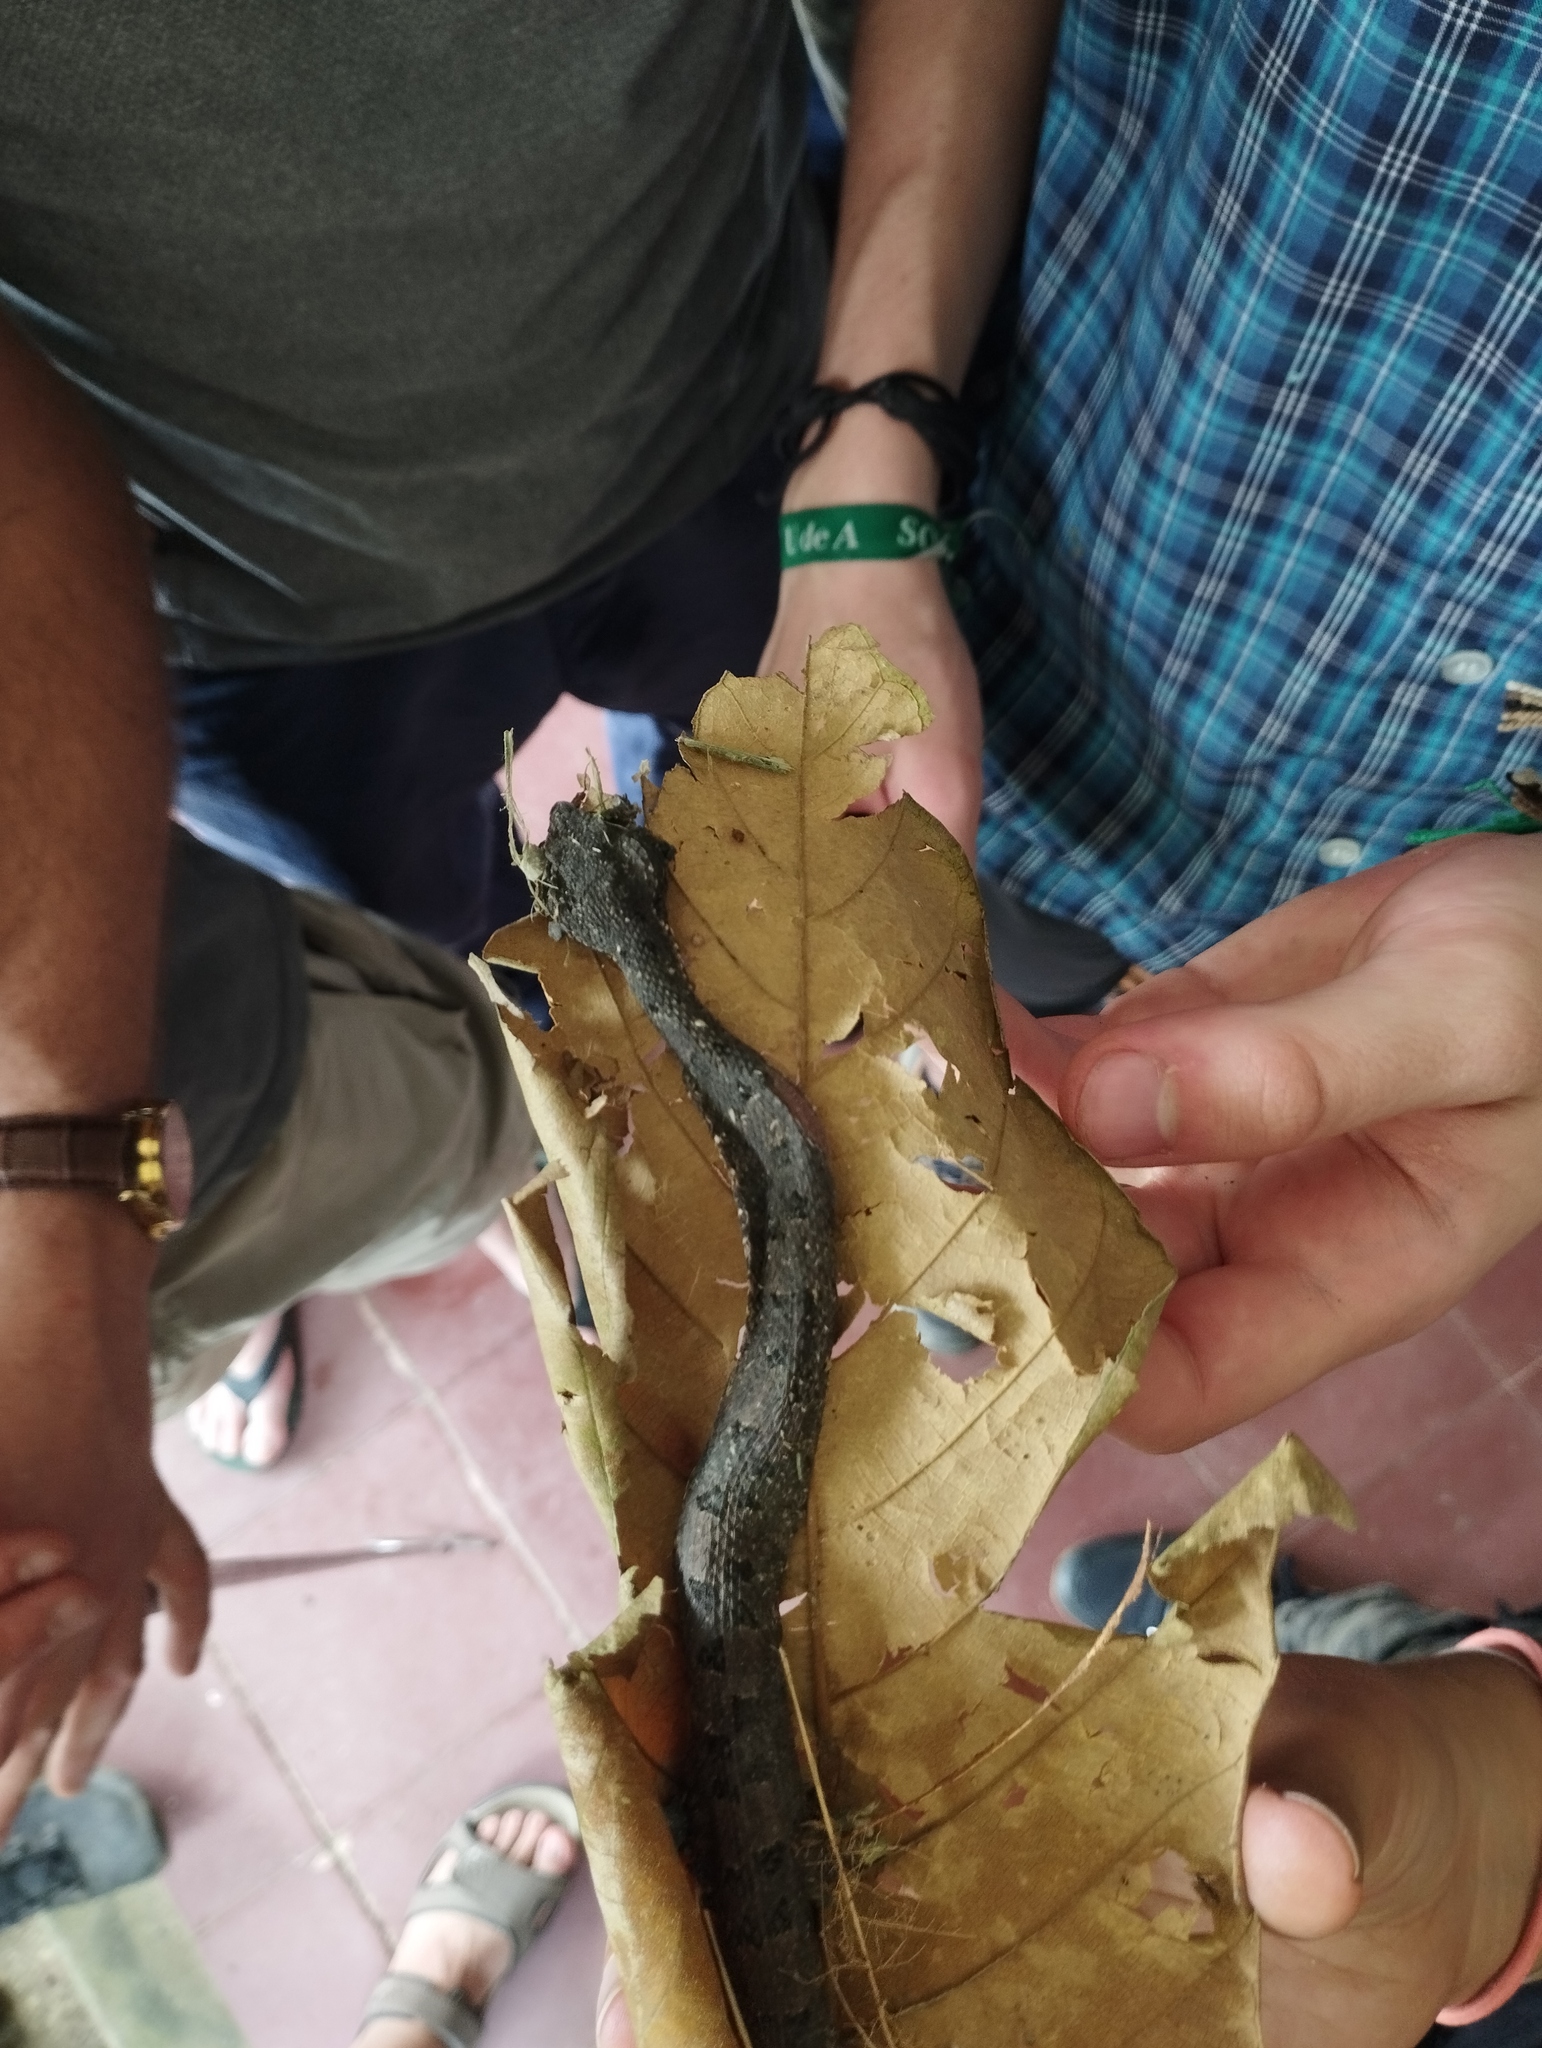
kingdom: Animalia
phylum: Chordata
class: Squamata
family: Viperidae
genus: Porthidium
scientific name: Porthidium lansbergii
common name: Lansberg's hognosed pit viper
